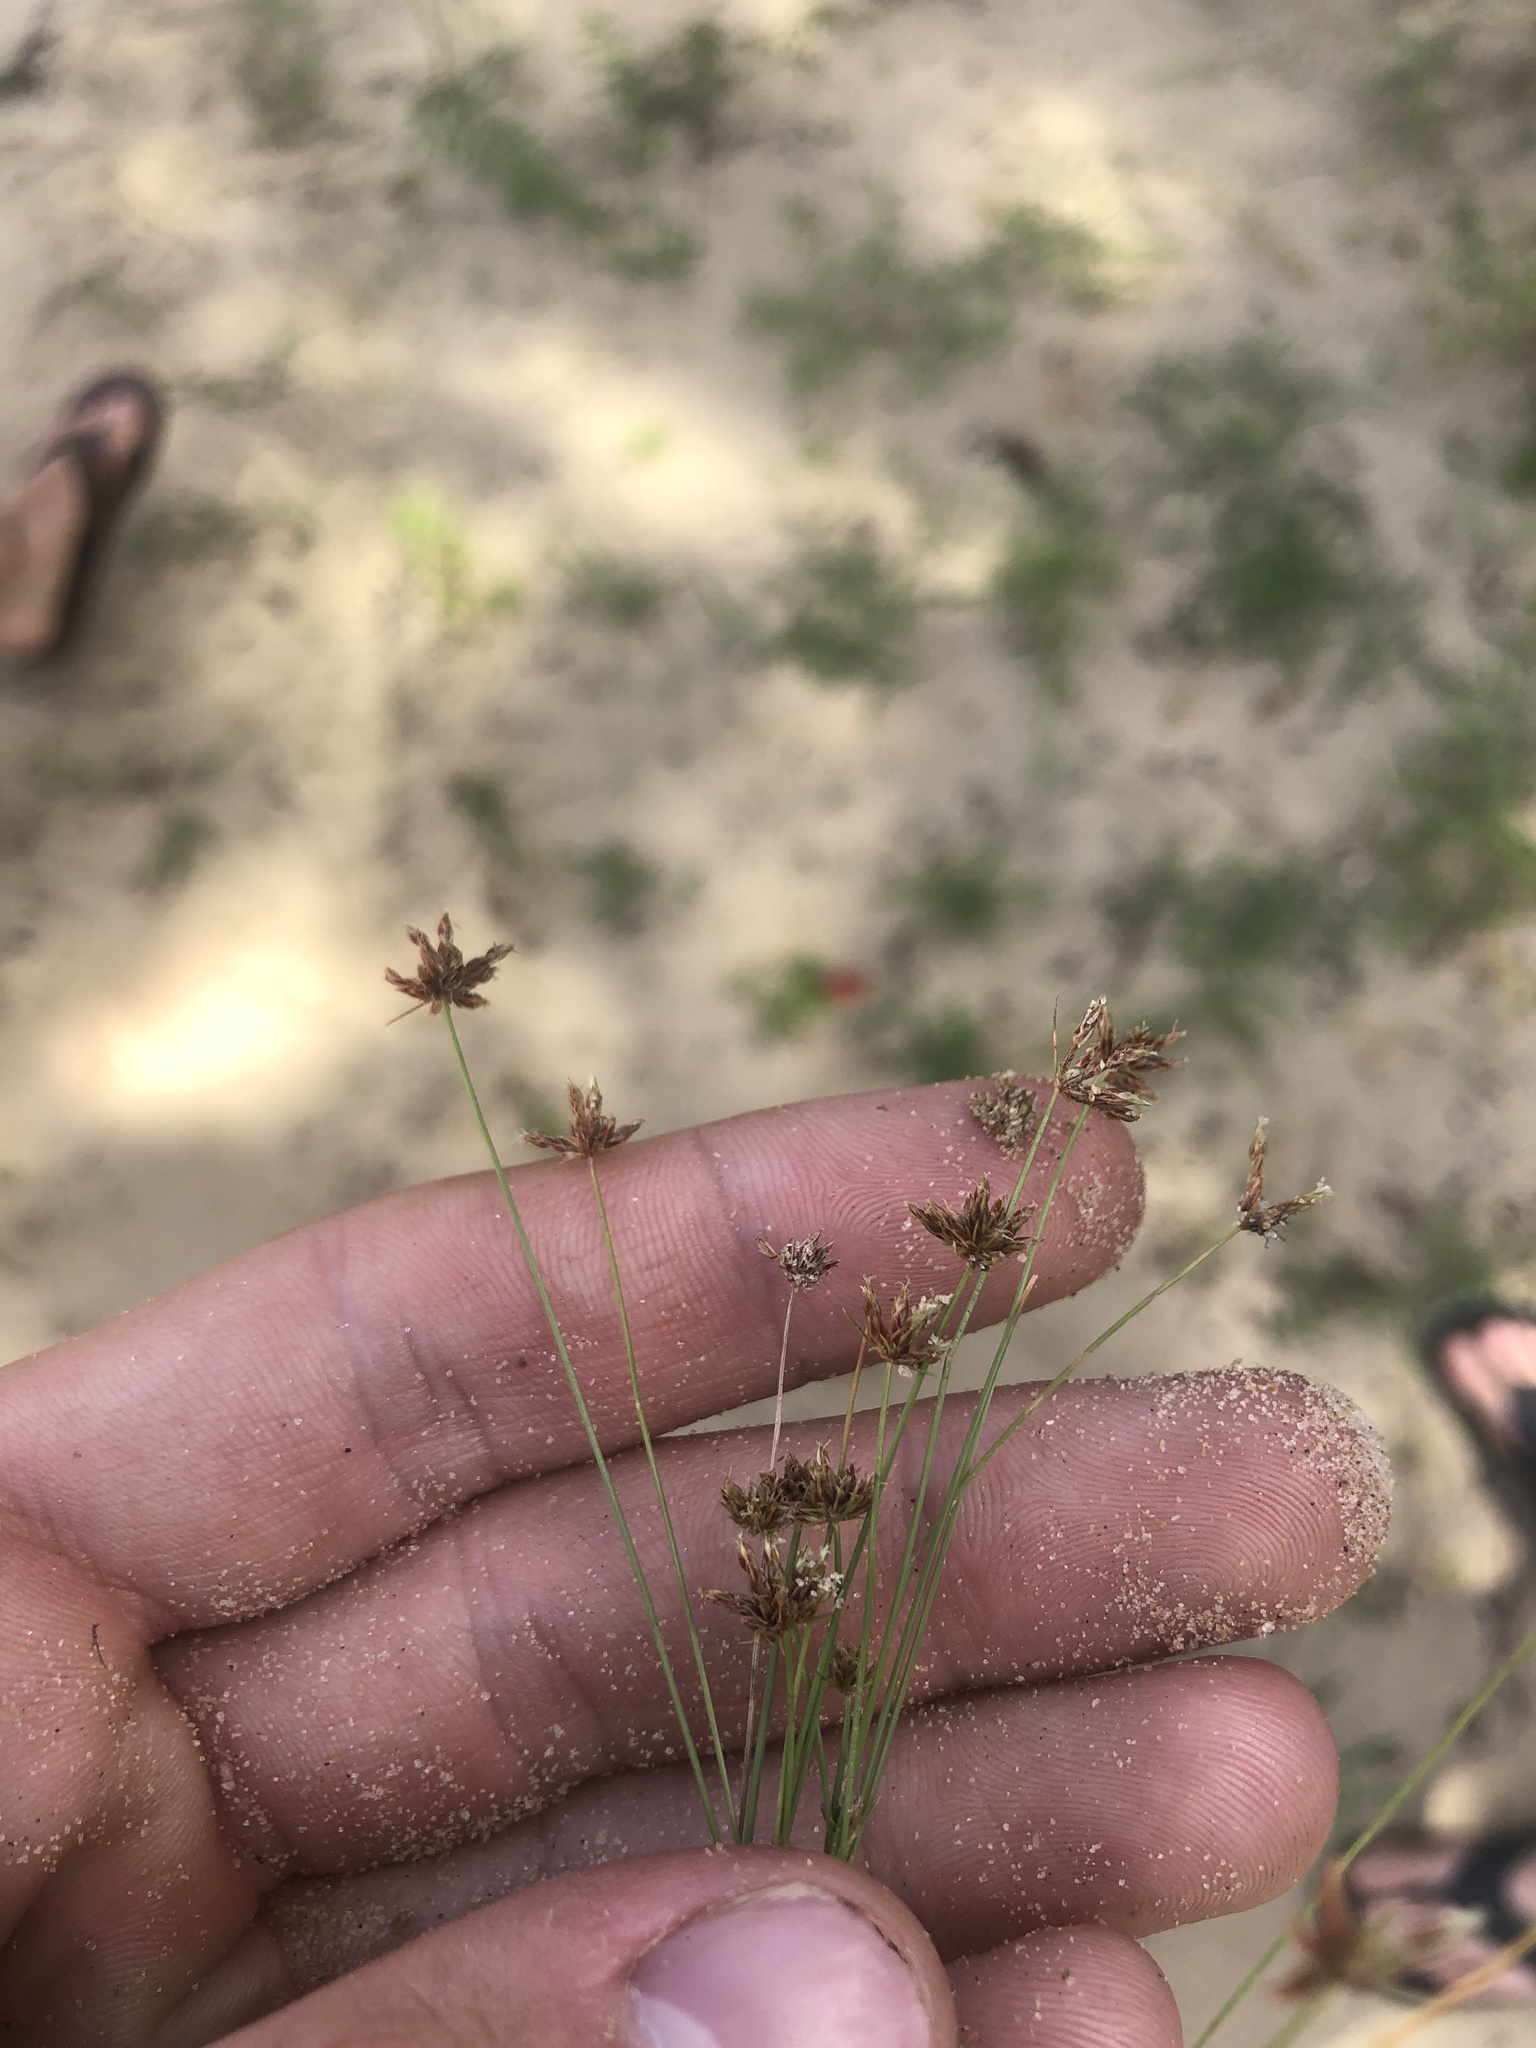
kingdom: Plantae
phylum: Tracheophyta
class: Liliopsida
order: Poales
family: Cyperaceae
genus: Bulbostylis
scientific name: Bulbostylis barbata
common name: Watergrass
